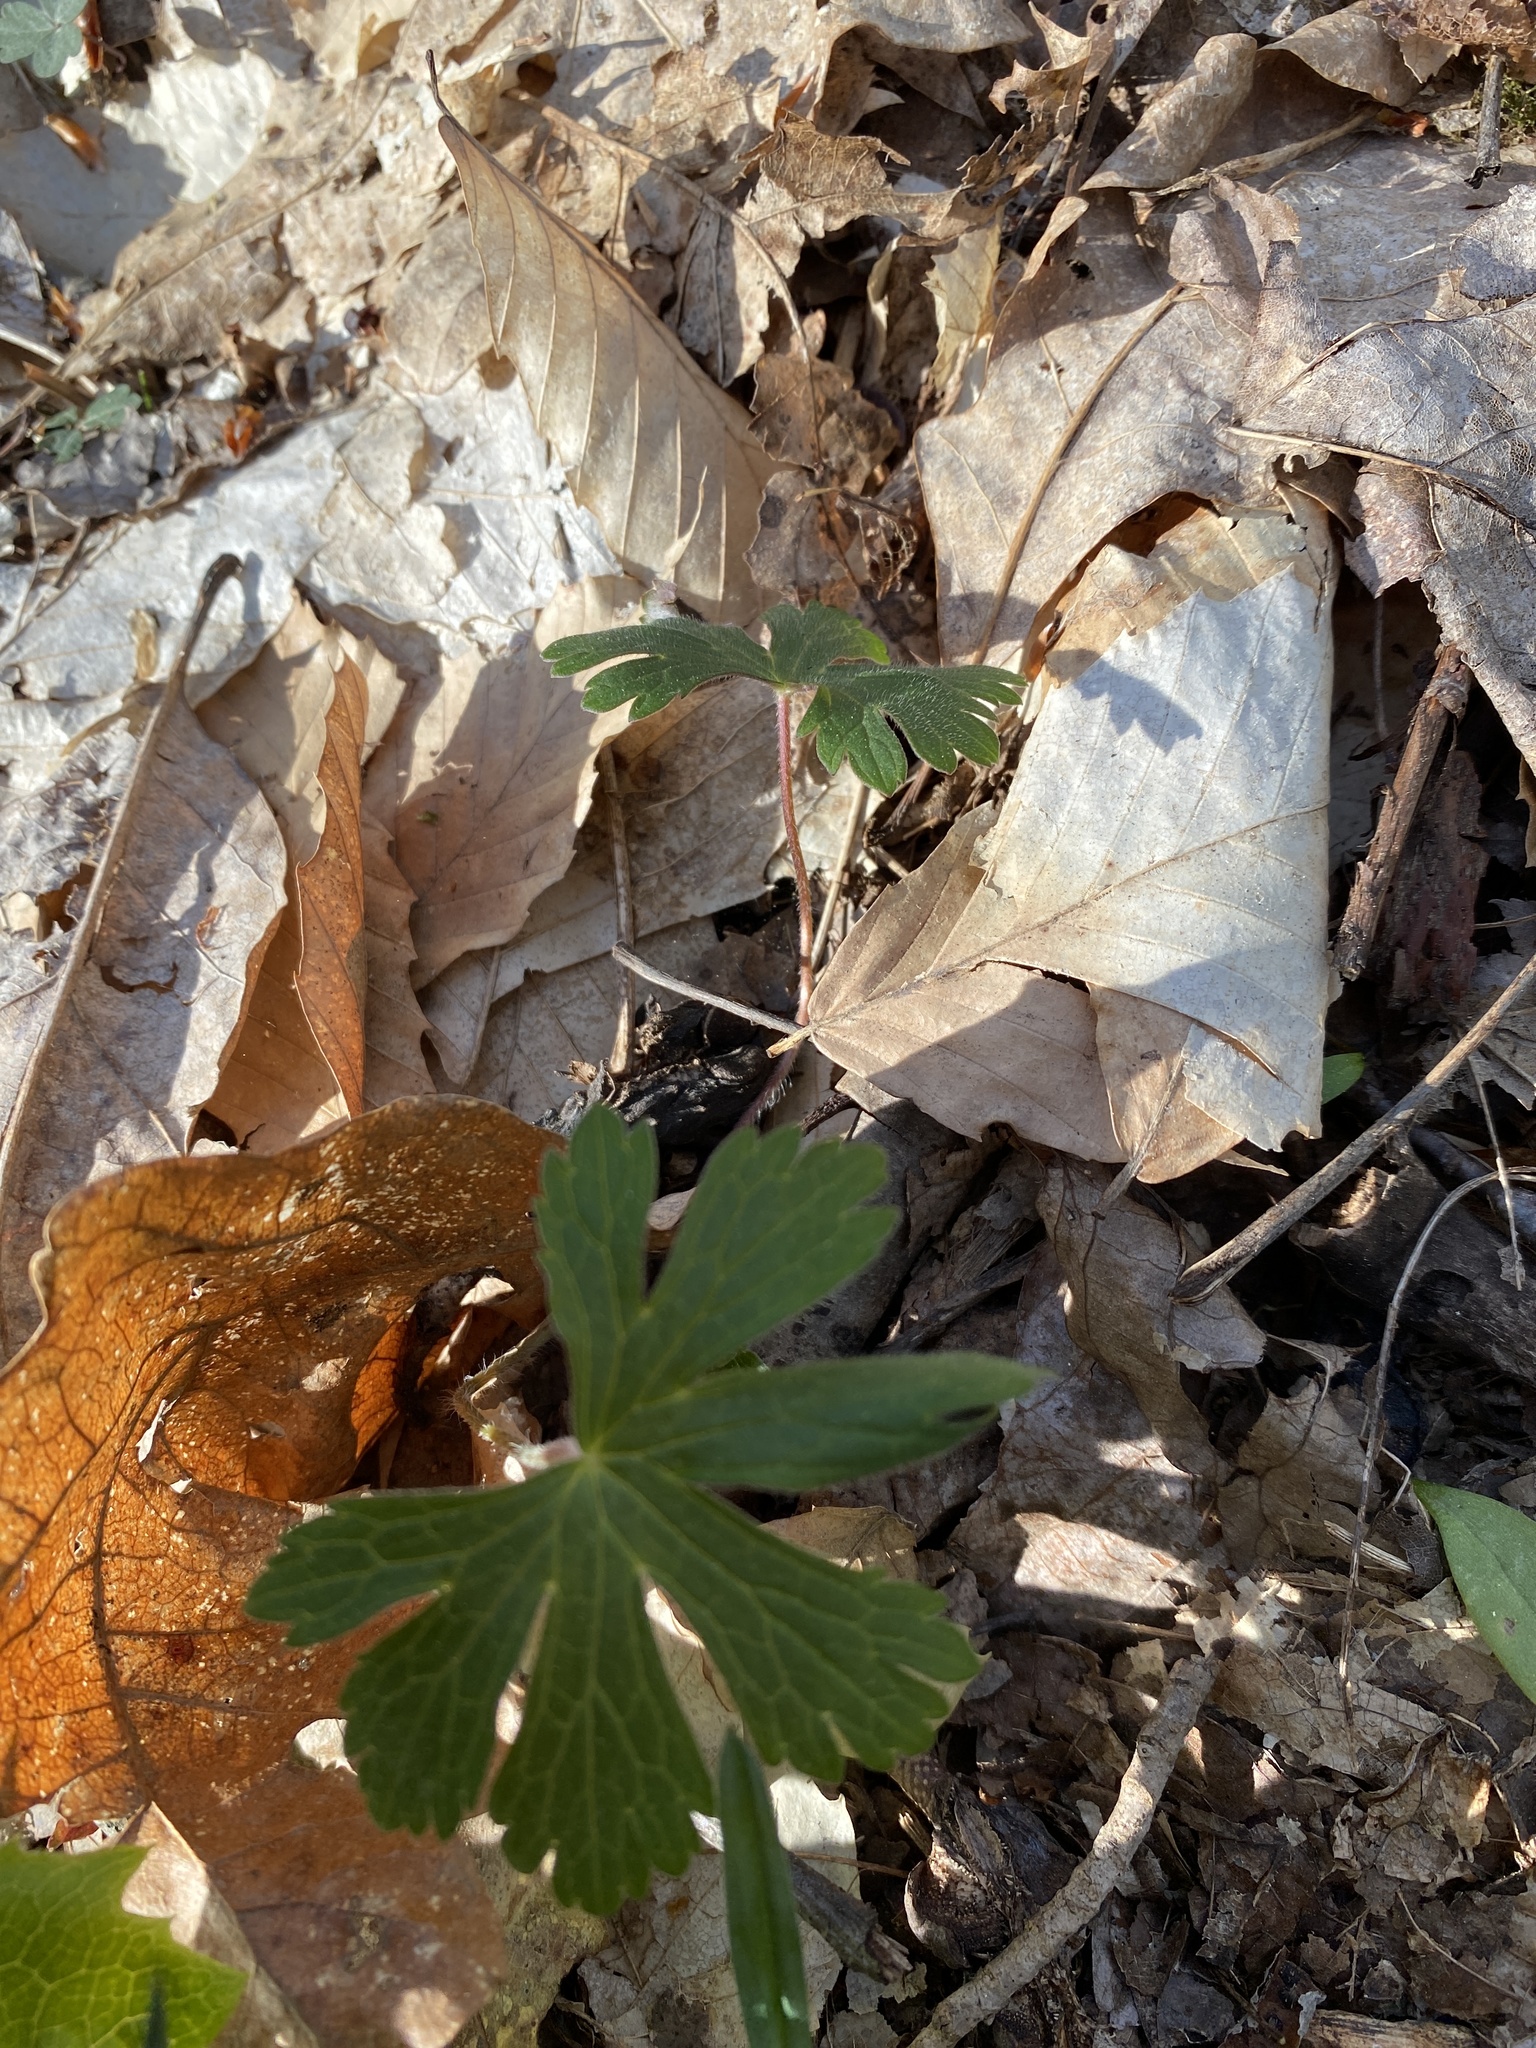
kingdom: Plantae
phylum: Tracheophyta
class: Magnoliopsida
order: Geraniales
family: Geraniaceae
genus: Geranium
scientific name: Geranium maculatum
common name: Spotted geranium
